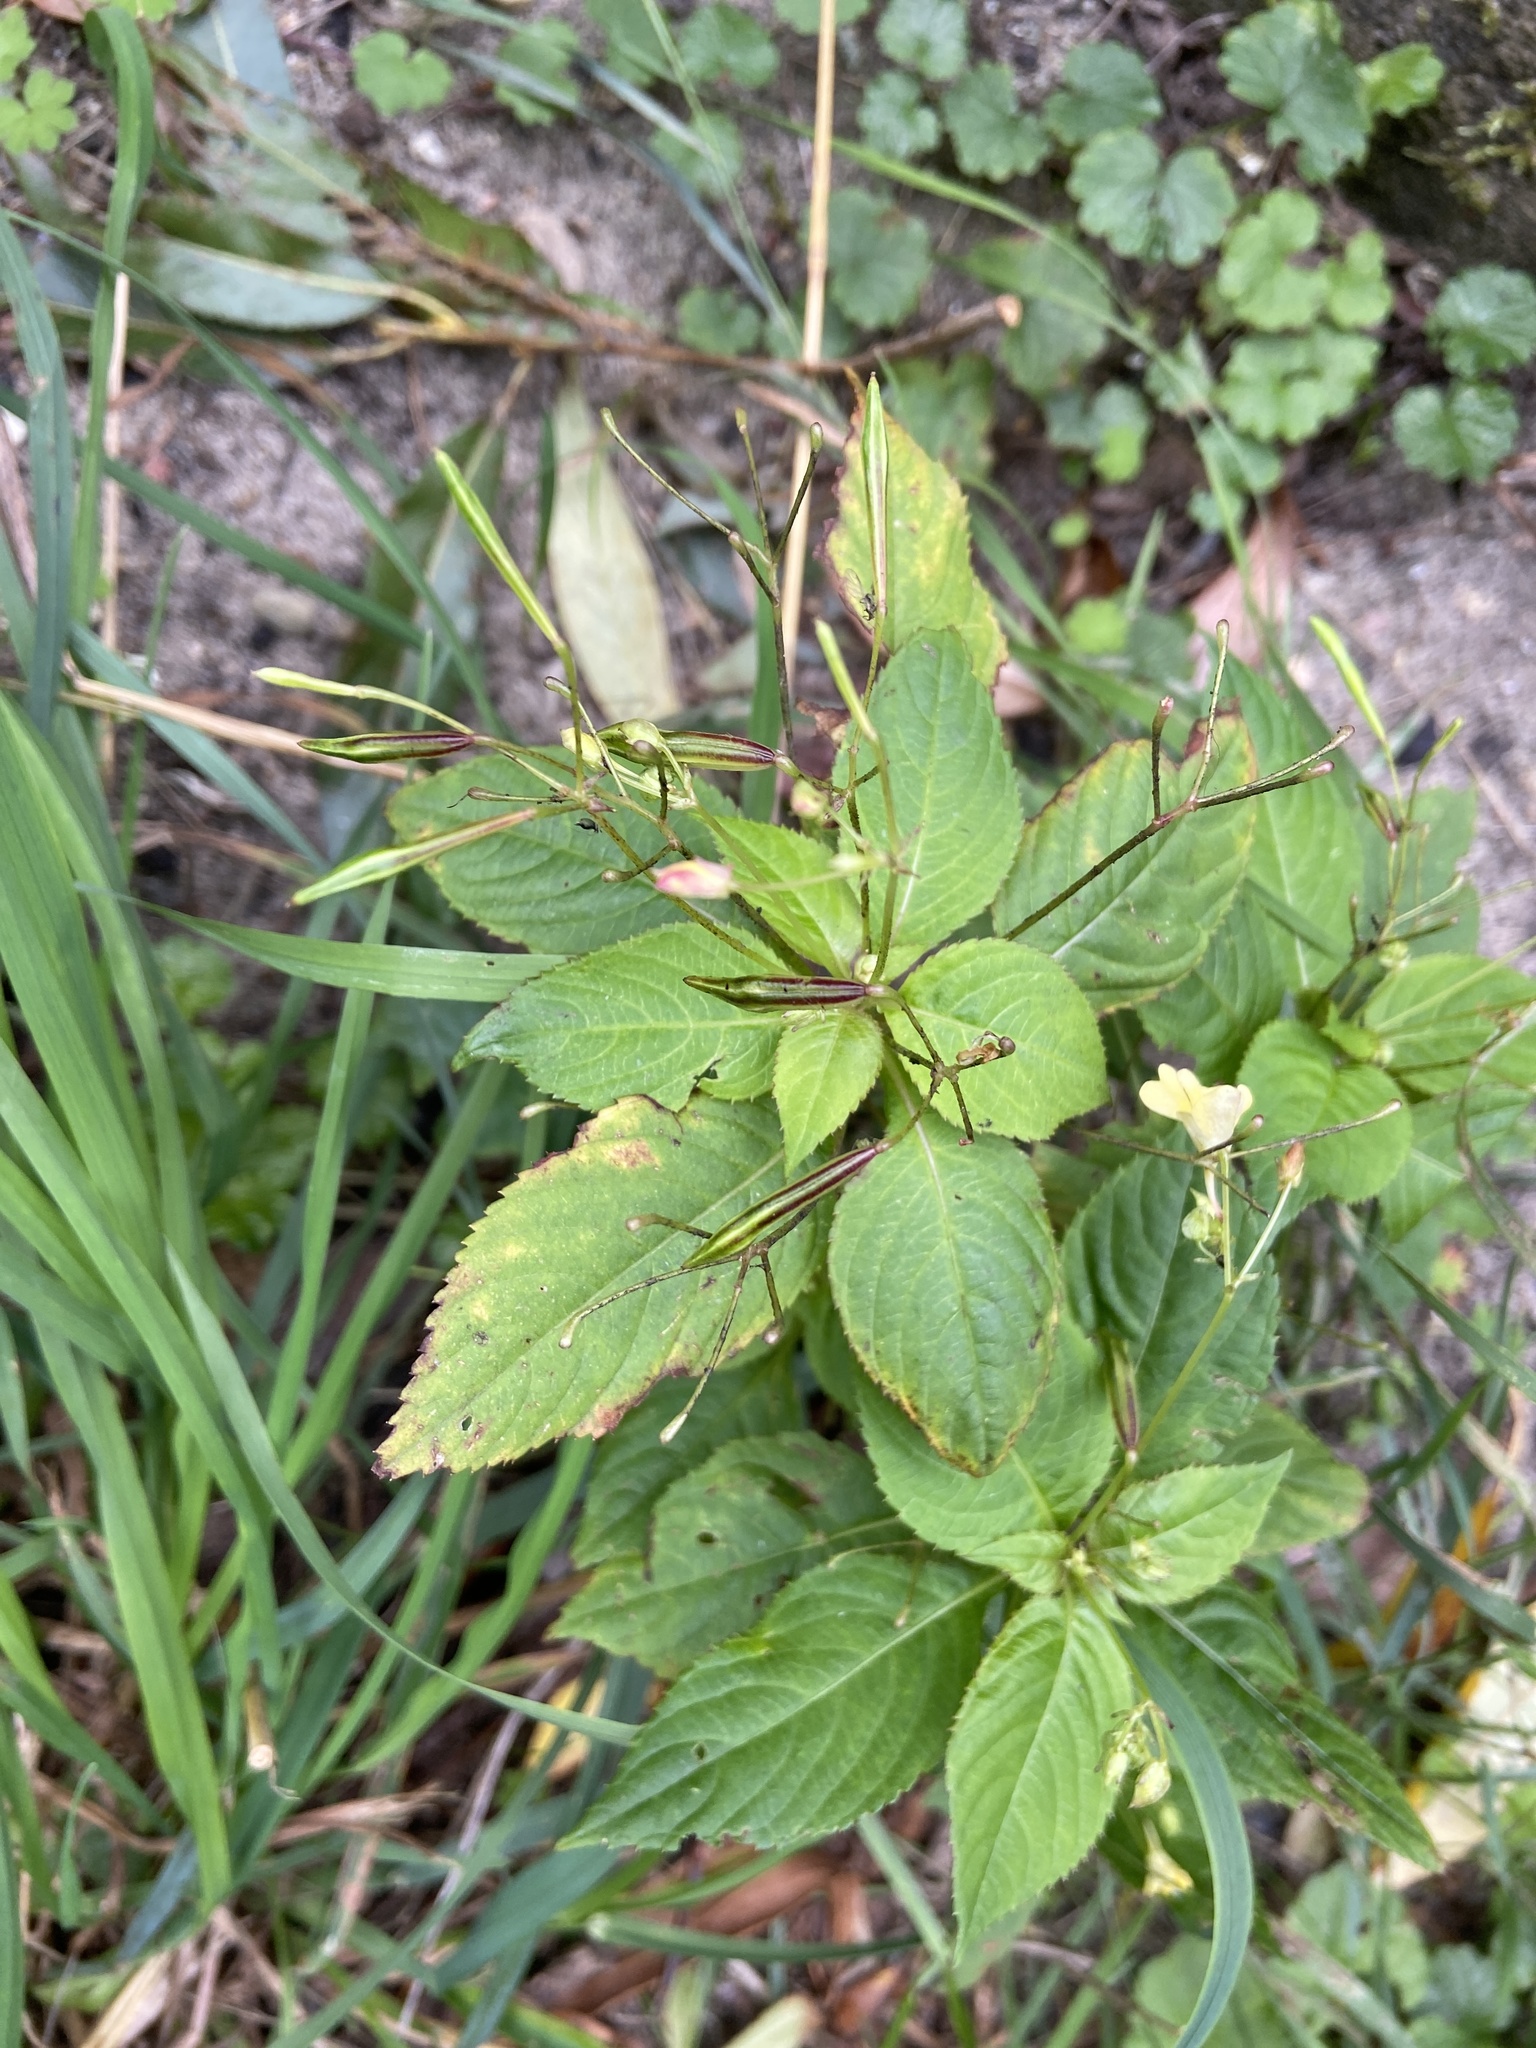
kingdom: Plantae
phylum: Tracheophyta
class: Magnoliopsida
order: Ericales
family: Balsaminaceae
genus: Impatiens
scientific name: Impatiens parviflora
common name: Small balsam
